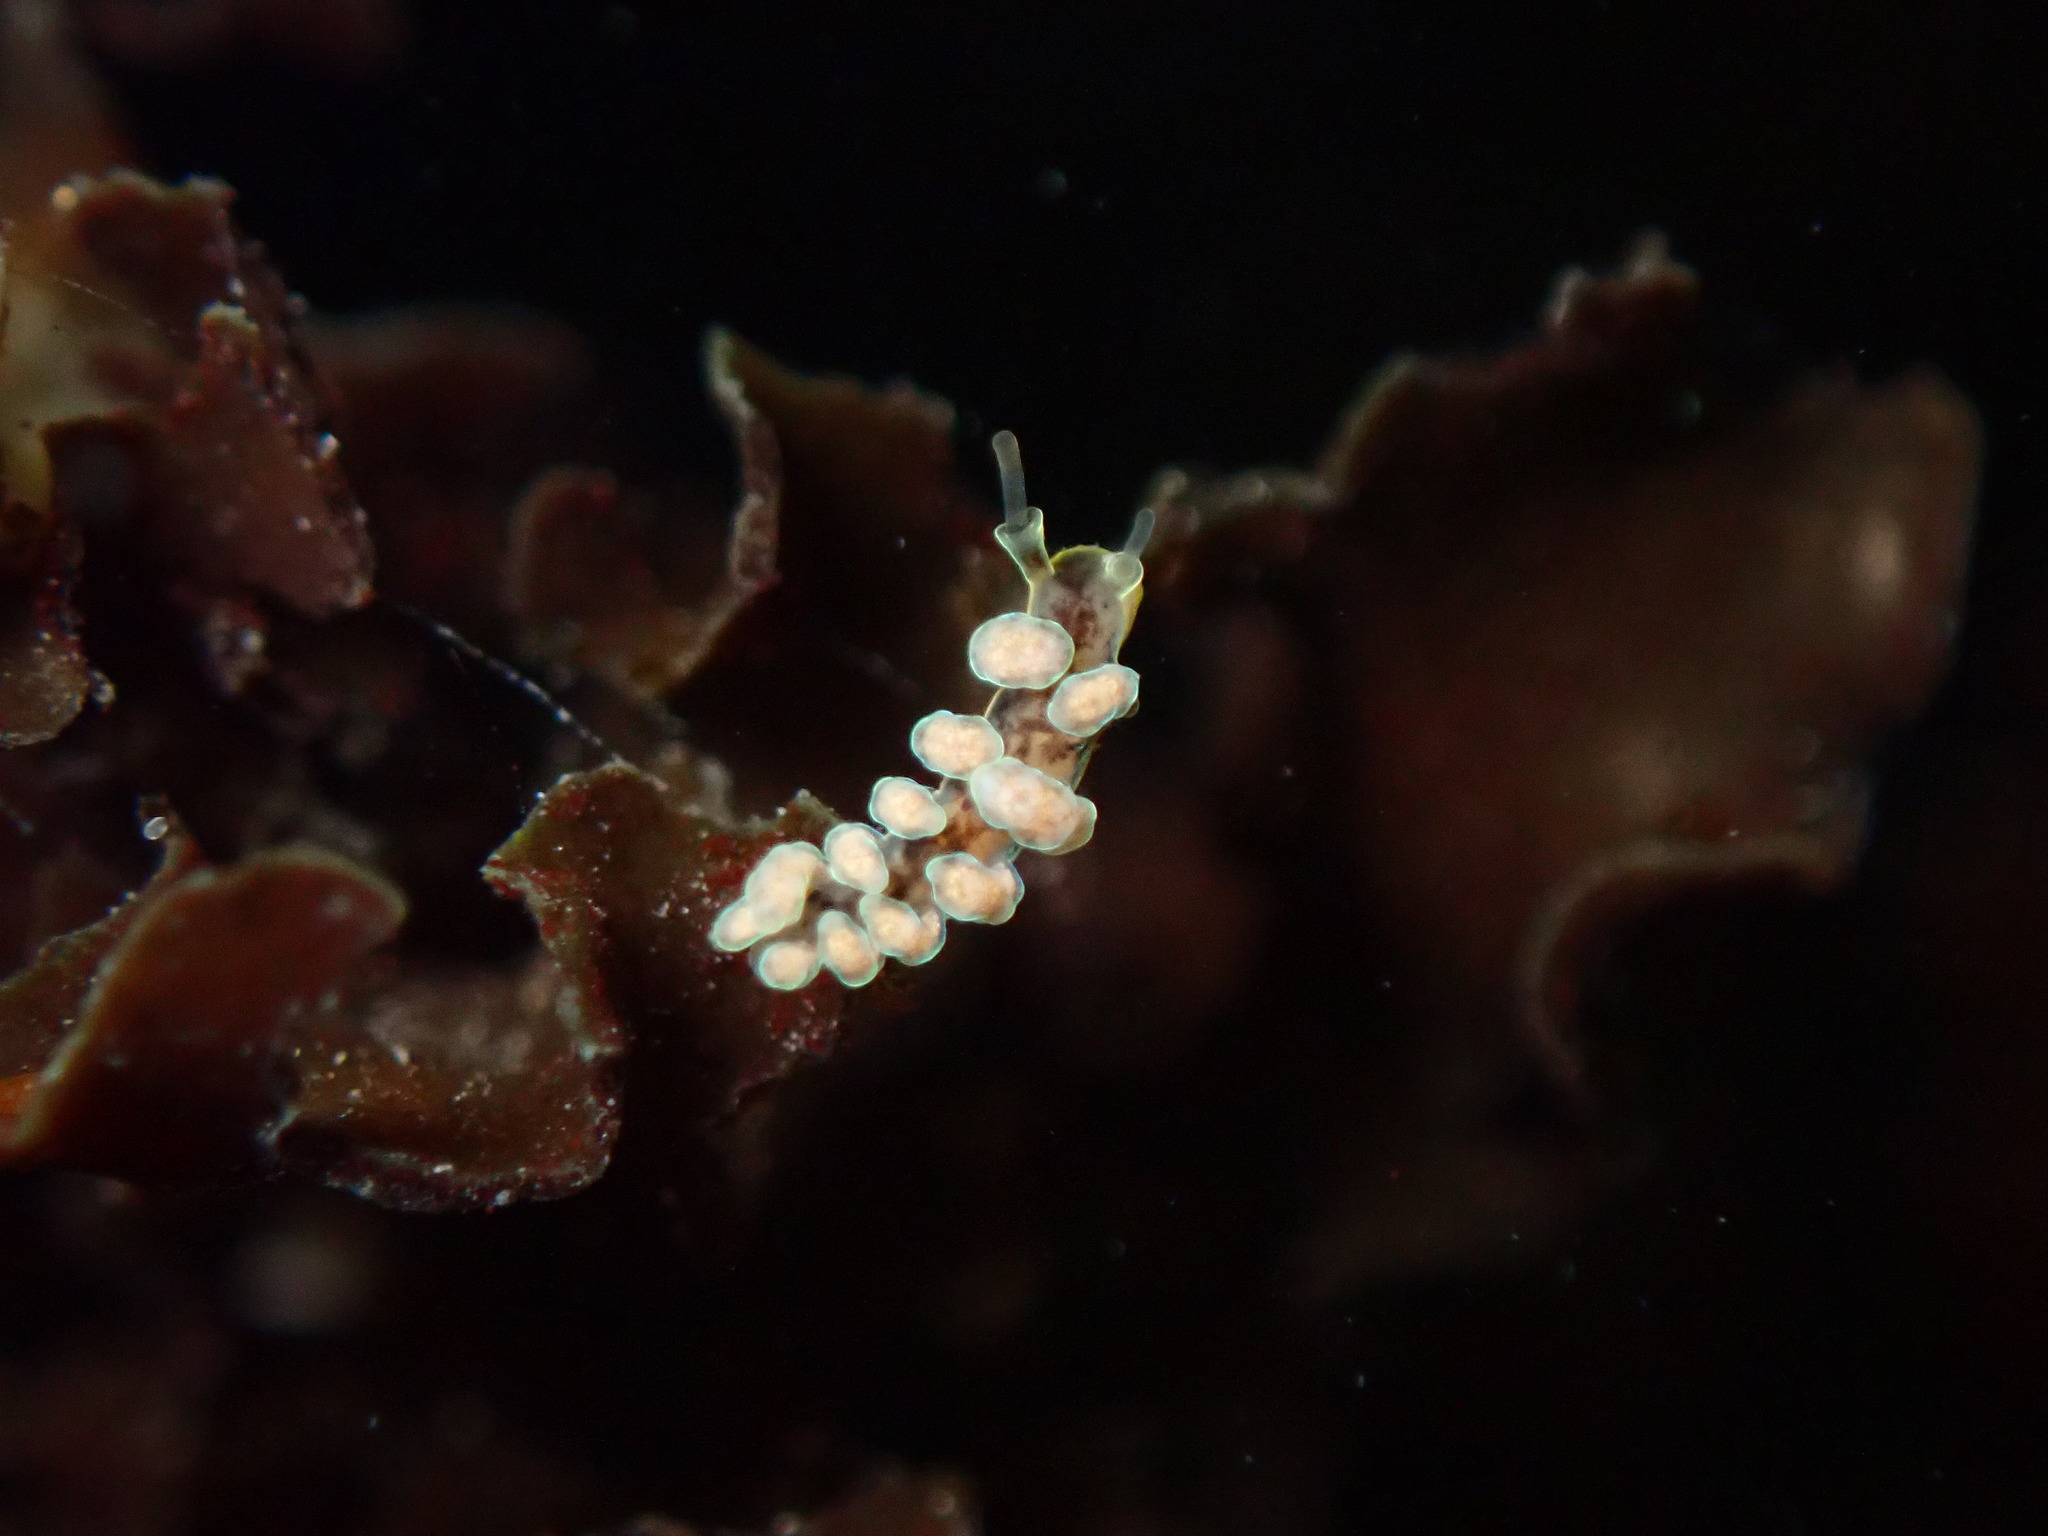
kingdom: Animalia
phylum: Mollusca
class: Gastropoda
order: Nudibranchia
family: Dotidae
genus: Doto
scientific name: Doto columbiana
